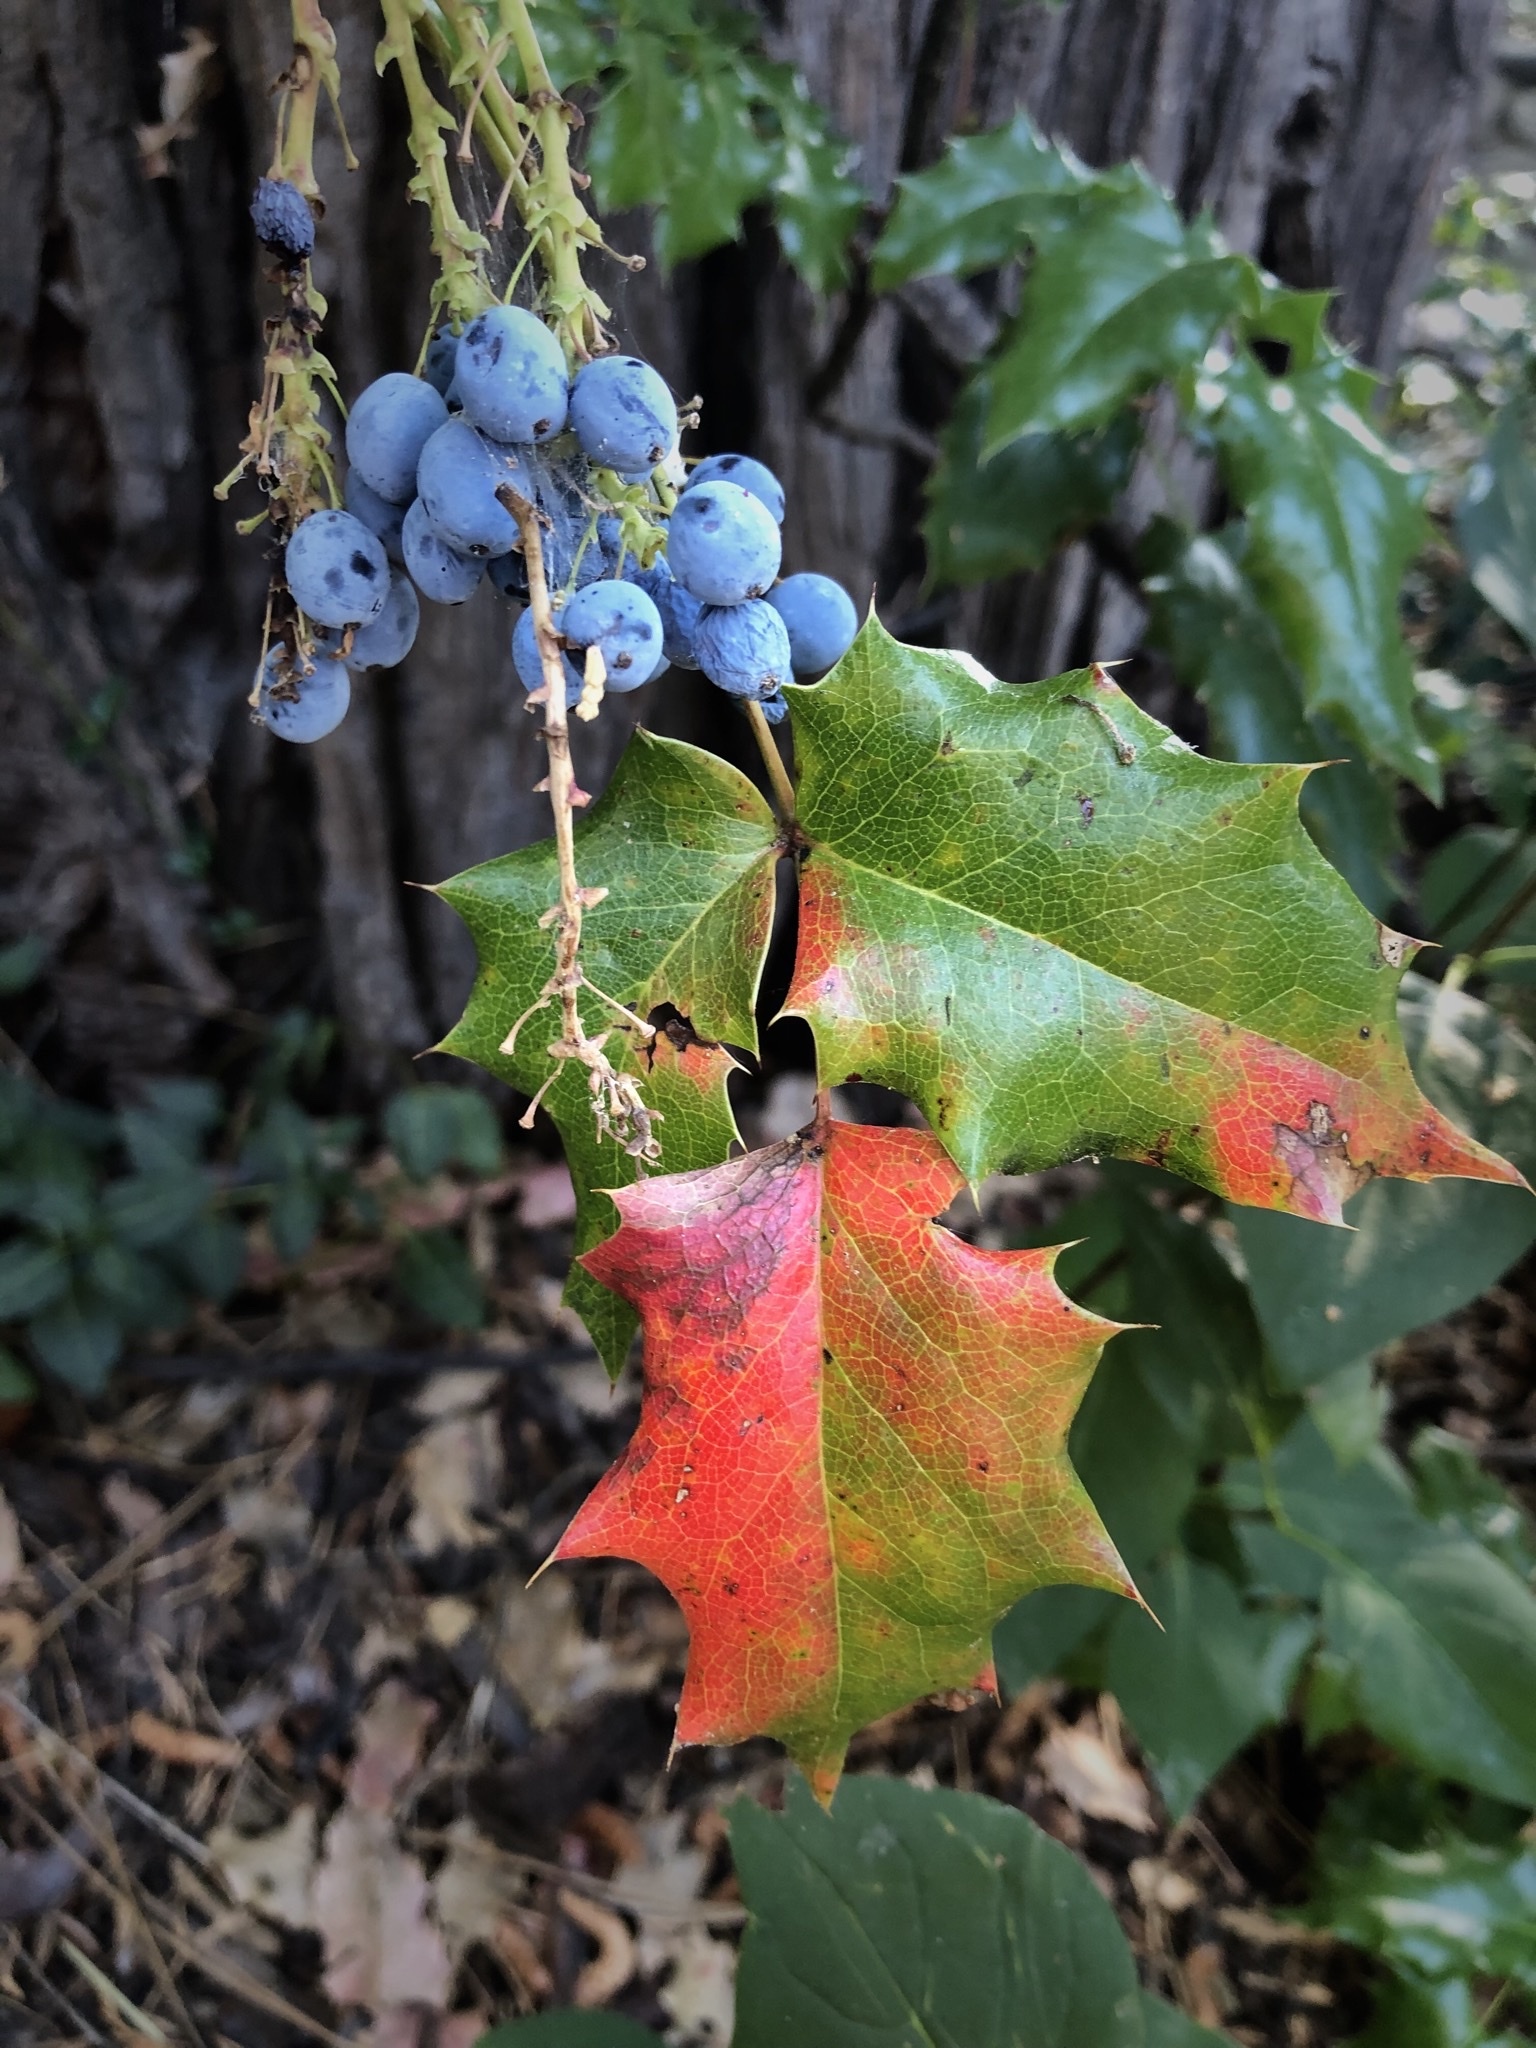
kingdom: Plantae
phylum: Tracheophyta
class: Magnoliopsida
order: Ranunculales
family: Berberidaceae
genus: Mahonia
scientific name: Mahonia aquifolium
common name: Oregon-grape
